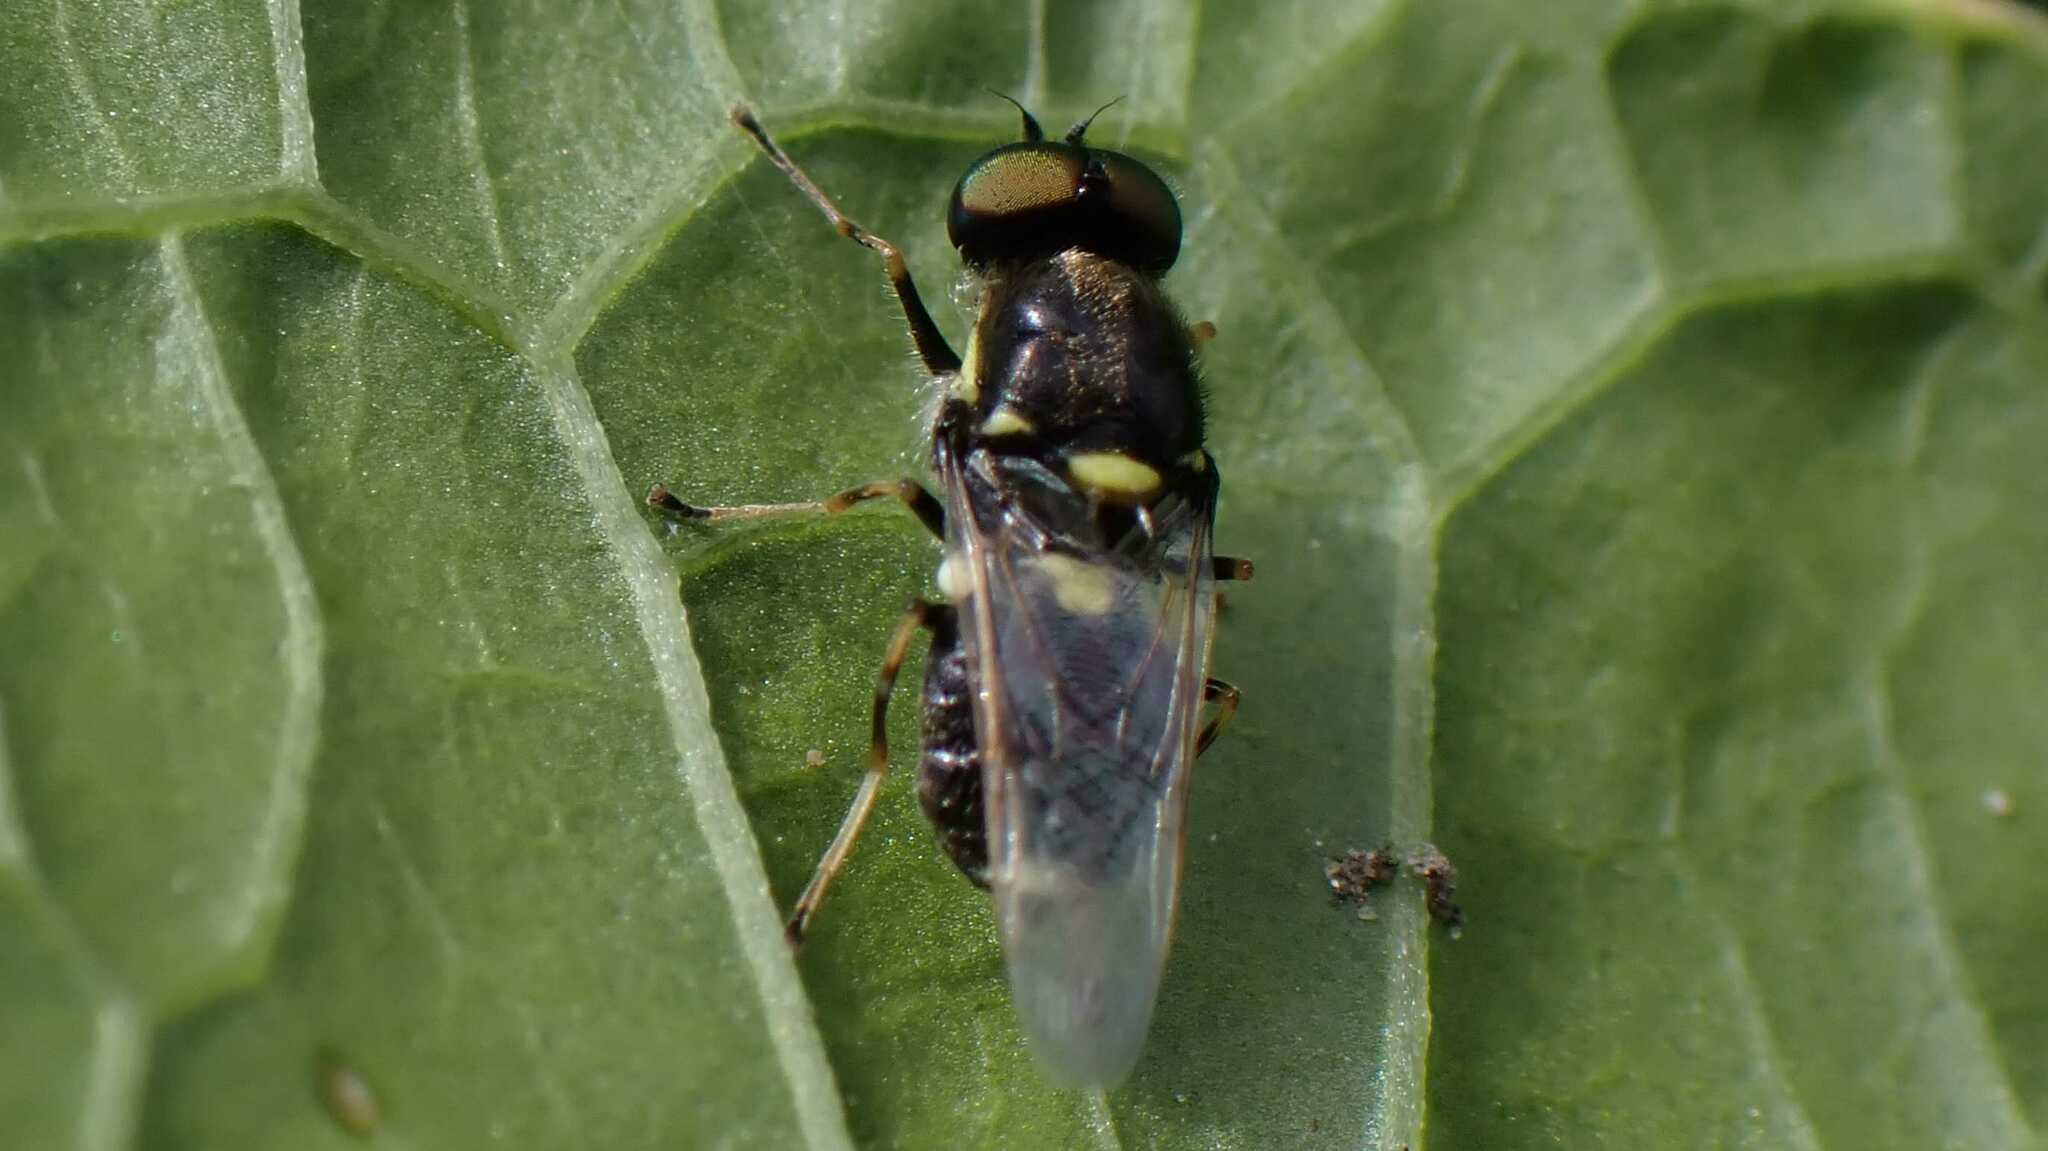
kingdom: Animalia
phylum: Arthropoda
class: Insecta
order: Diptera
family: Stratiomyidae
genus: Oxycera
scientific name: Oxycera leonina
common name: Twin-spotted major
